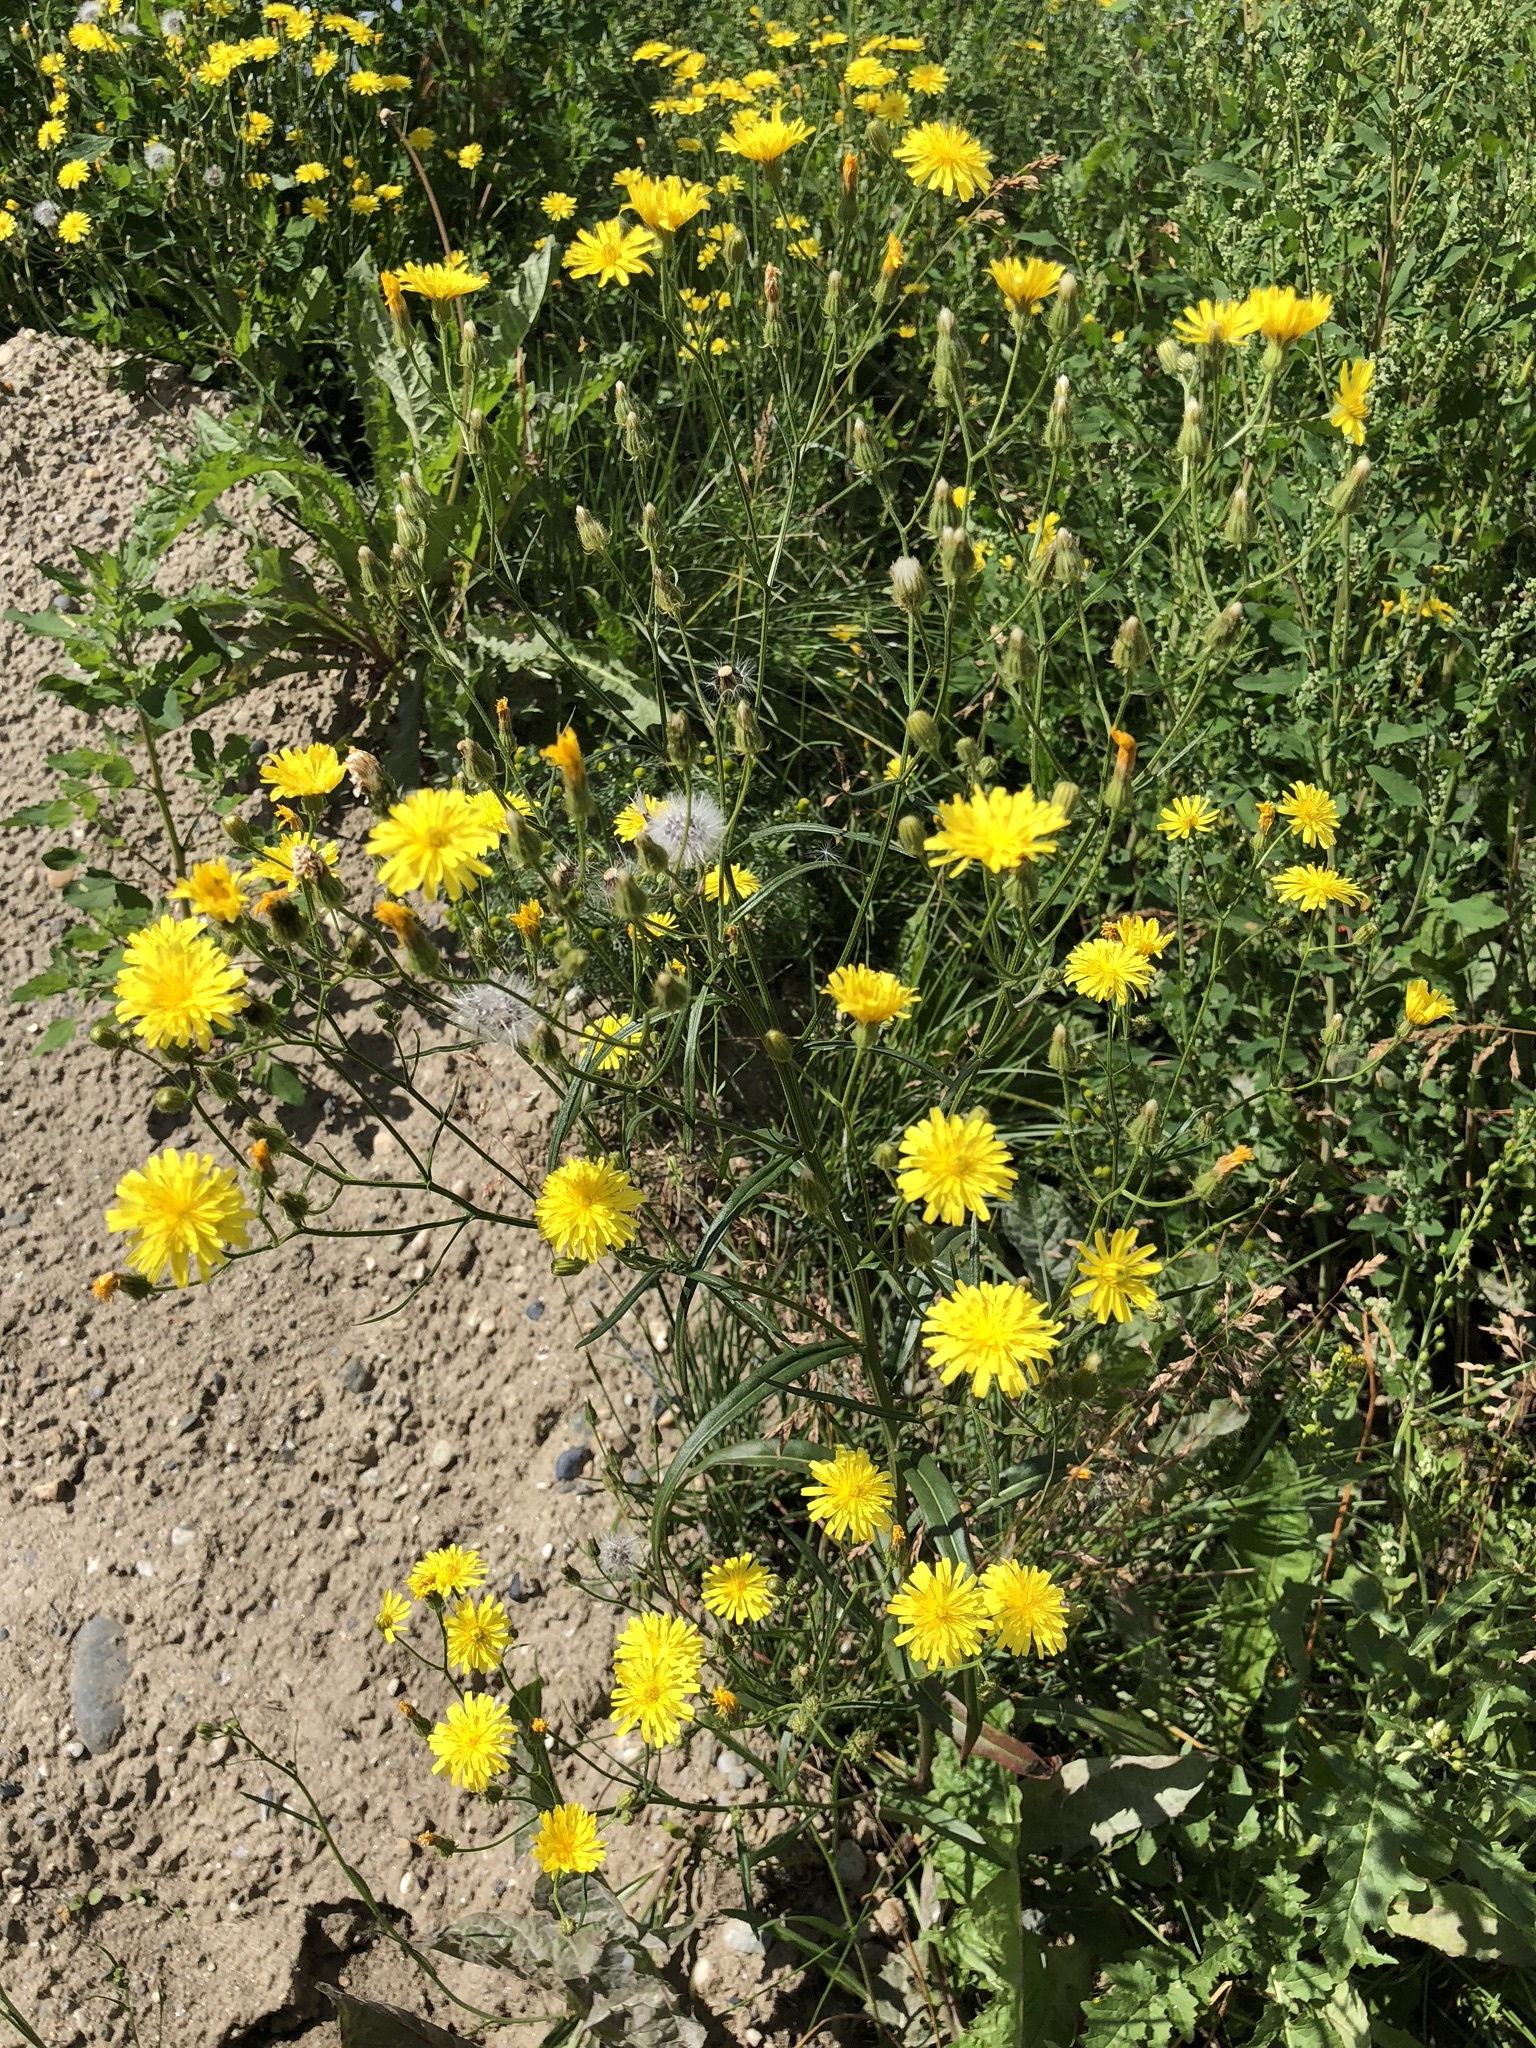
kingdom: Plantae
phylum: Tracheophyta
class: Magnoliopsida
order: Asterales
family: Asteraceae
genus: Crepis
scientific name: Crepis tectorum
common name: Narrow-leaved hawk's-beard
